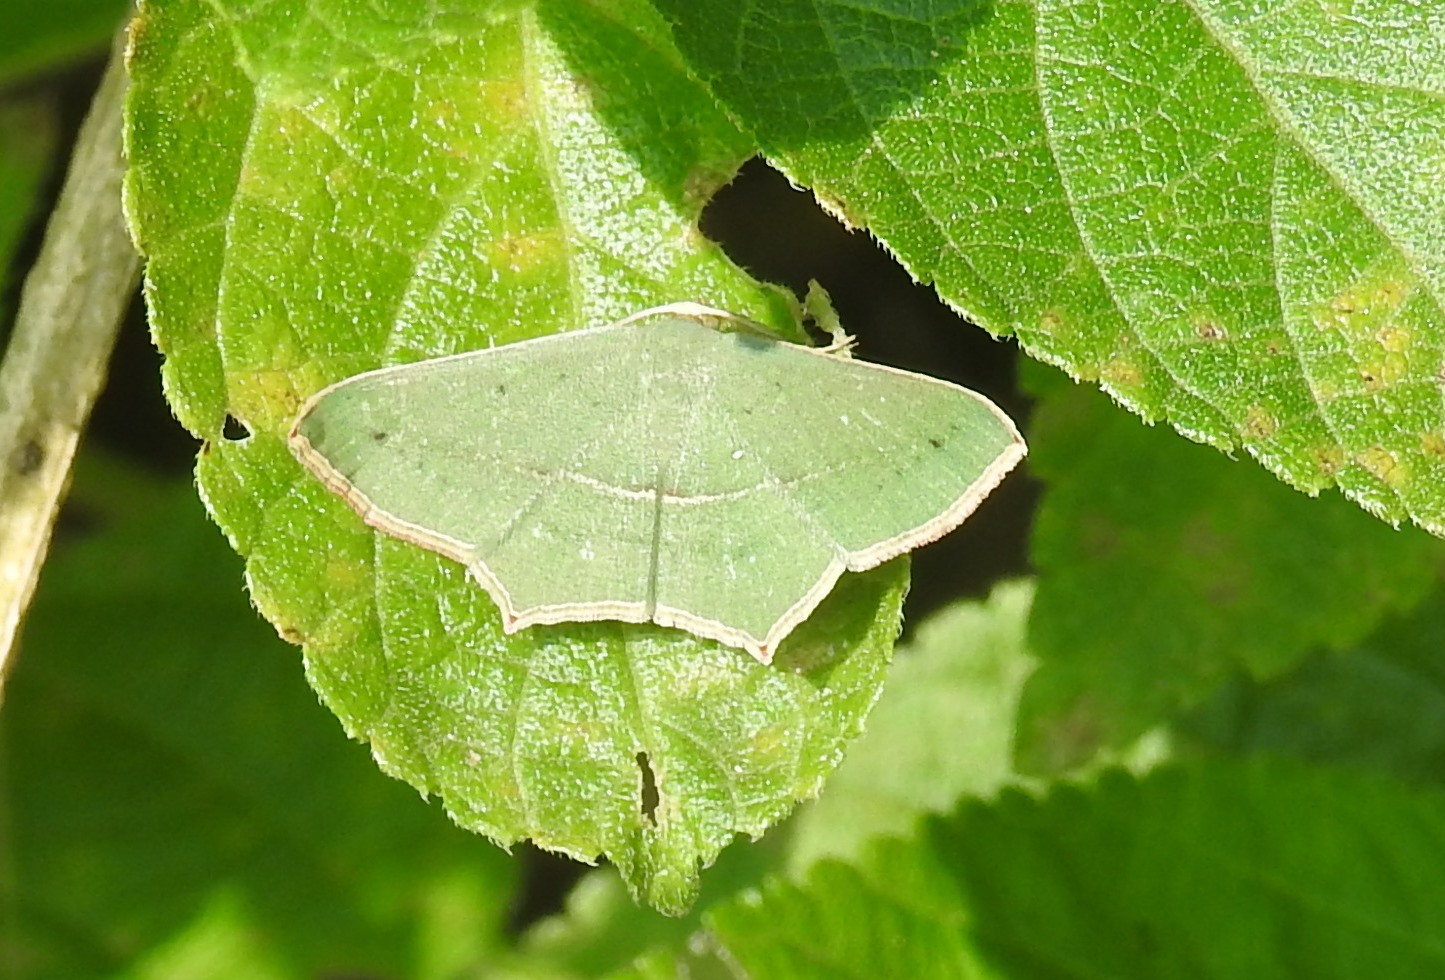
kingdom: Animalia
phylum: Arthropoda
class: Insecta
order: Lepidoptera
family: Geometridae
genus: Traminda
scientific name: Traminda mundissima
